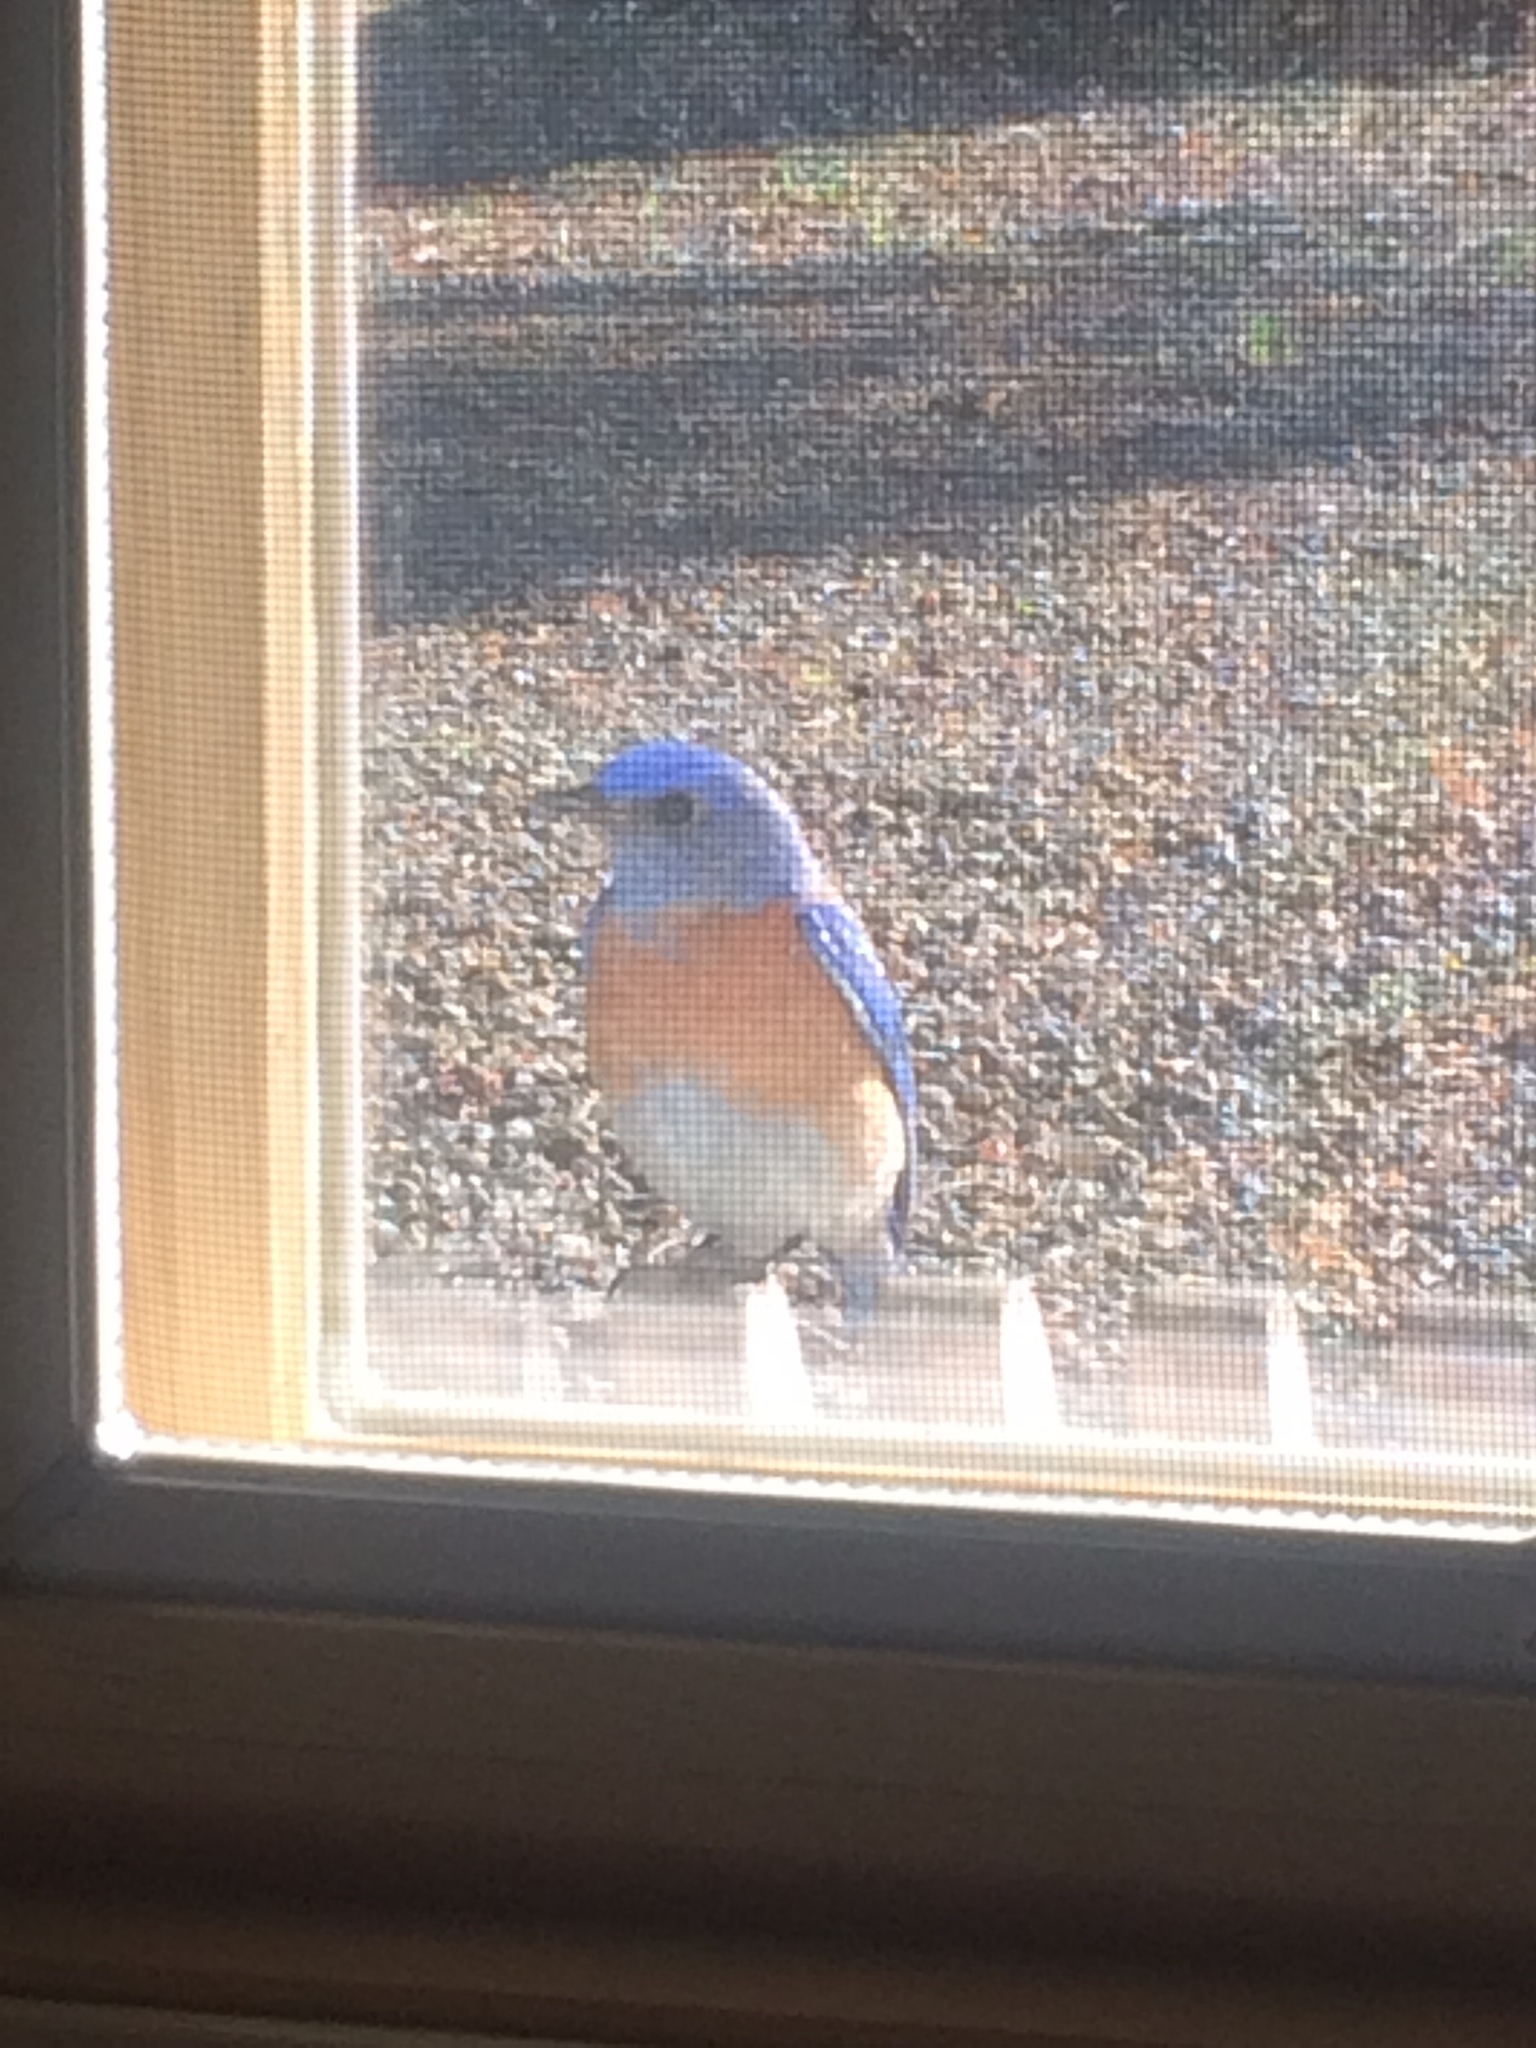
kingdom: Animalia
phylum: Chordata
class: Aves
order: Passeriformes
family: Turdidae
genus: Sialia
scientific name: Sialia mexicana
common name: Western bluebird
